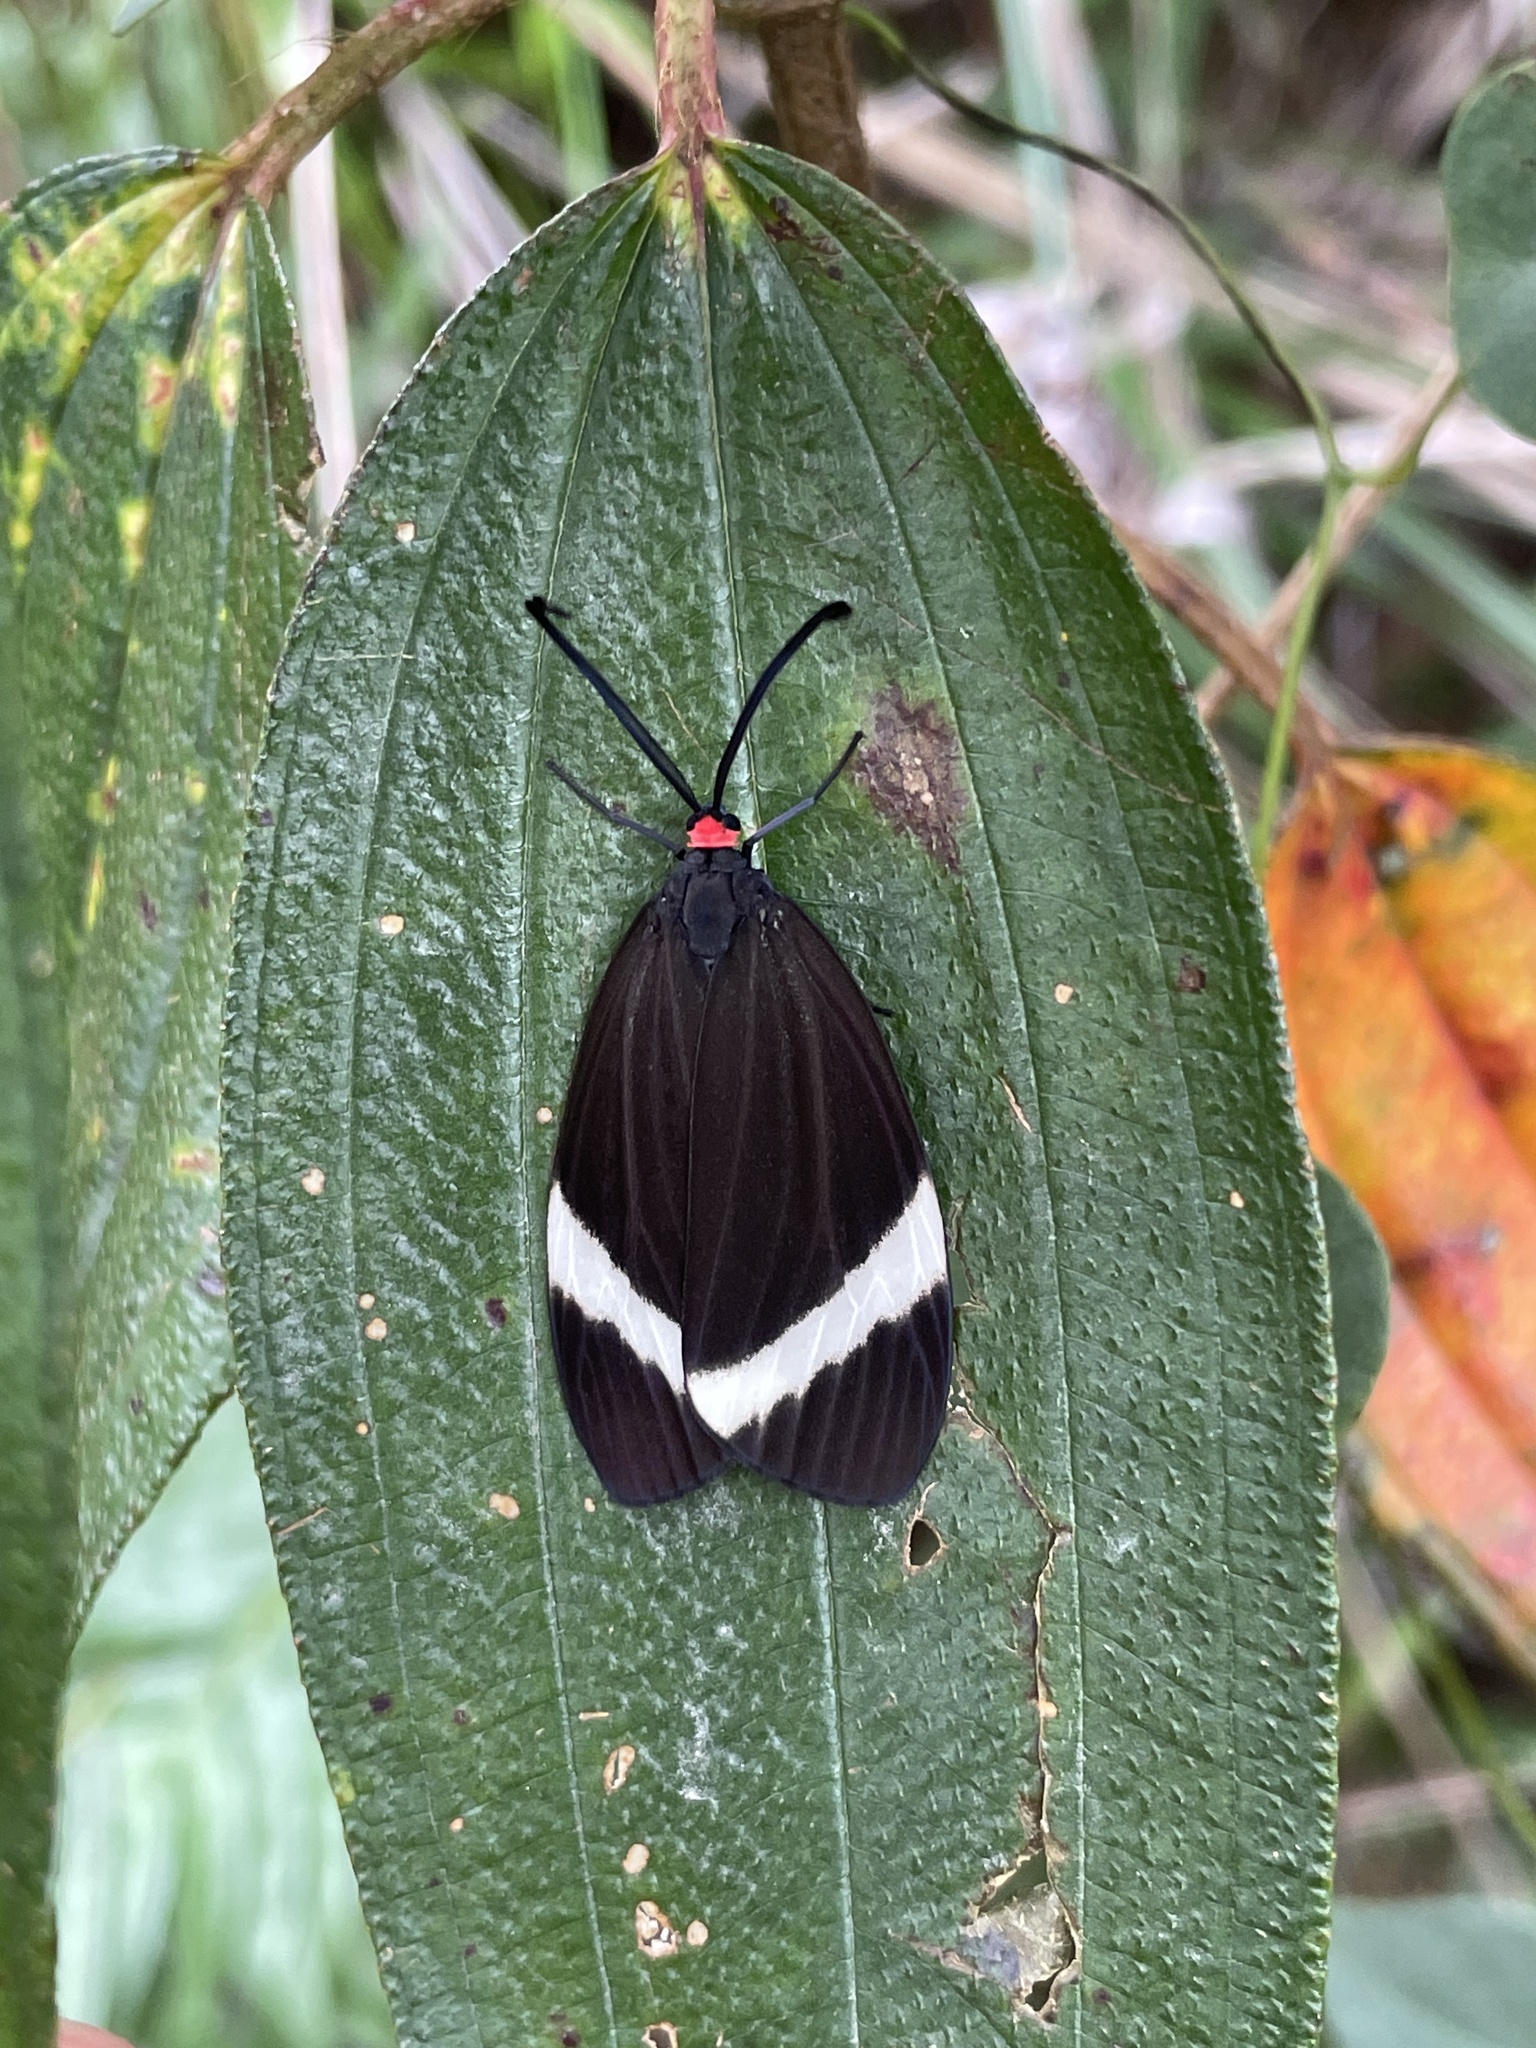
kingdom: Animalia
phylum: Arthropoda
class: Insecta
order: Lepidoptera
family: Zygaenidae
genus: Pidorus
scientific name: Pidorus glaucopis
